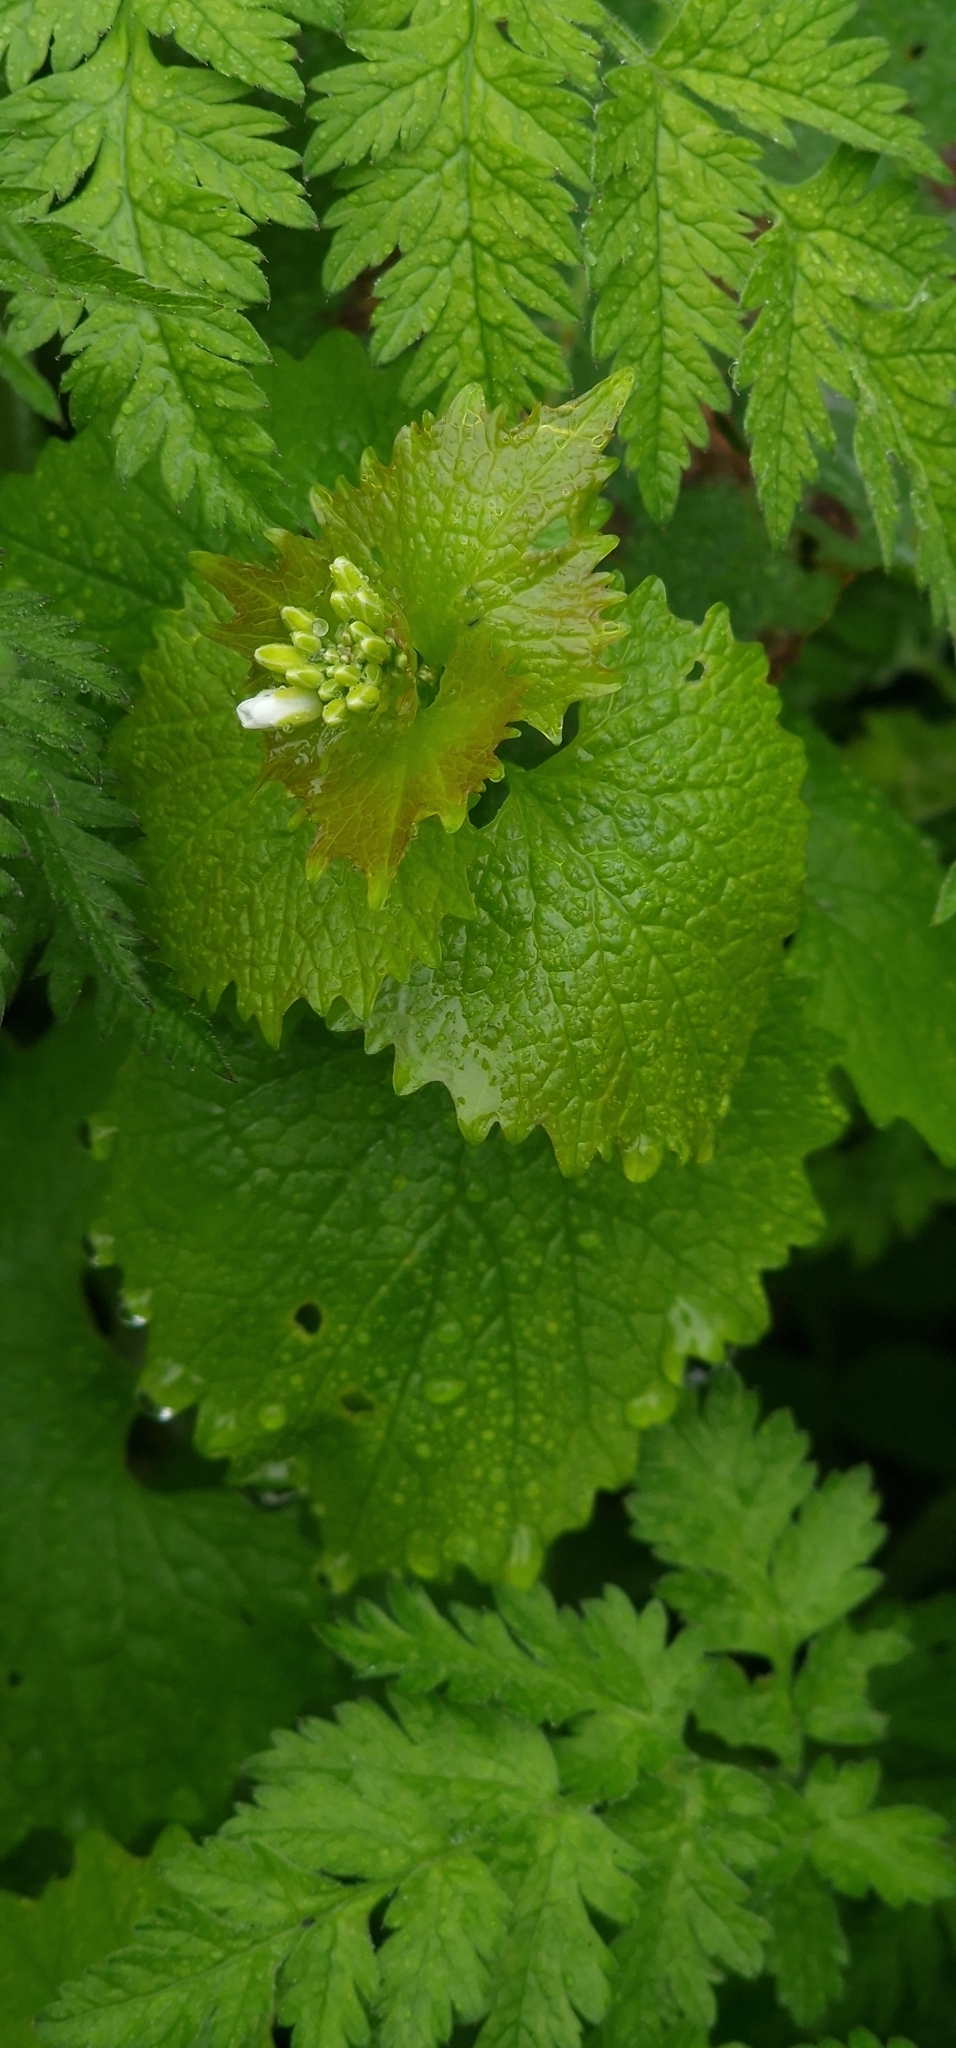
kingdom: Plantae
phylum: Tracheophyta
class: Magnoliopsida
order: Brassicales
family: Brassicaceae
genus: Alliaria
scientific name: Alliaria petiolata
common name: Garlic mustard
